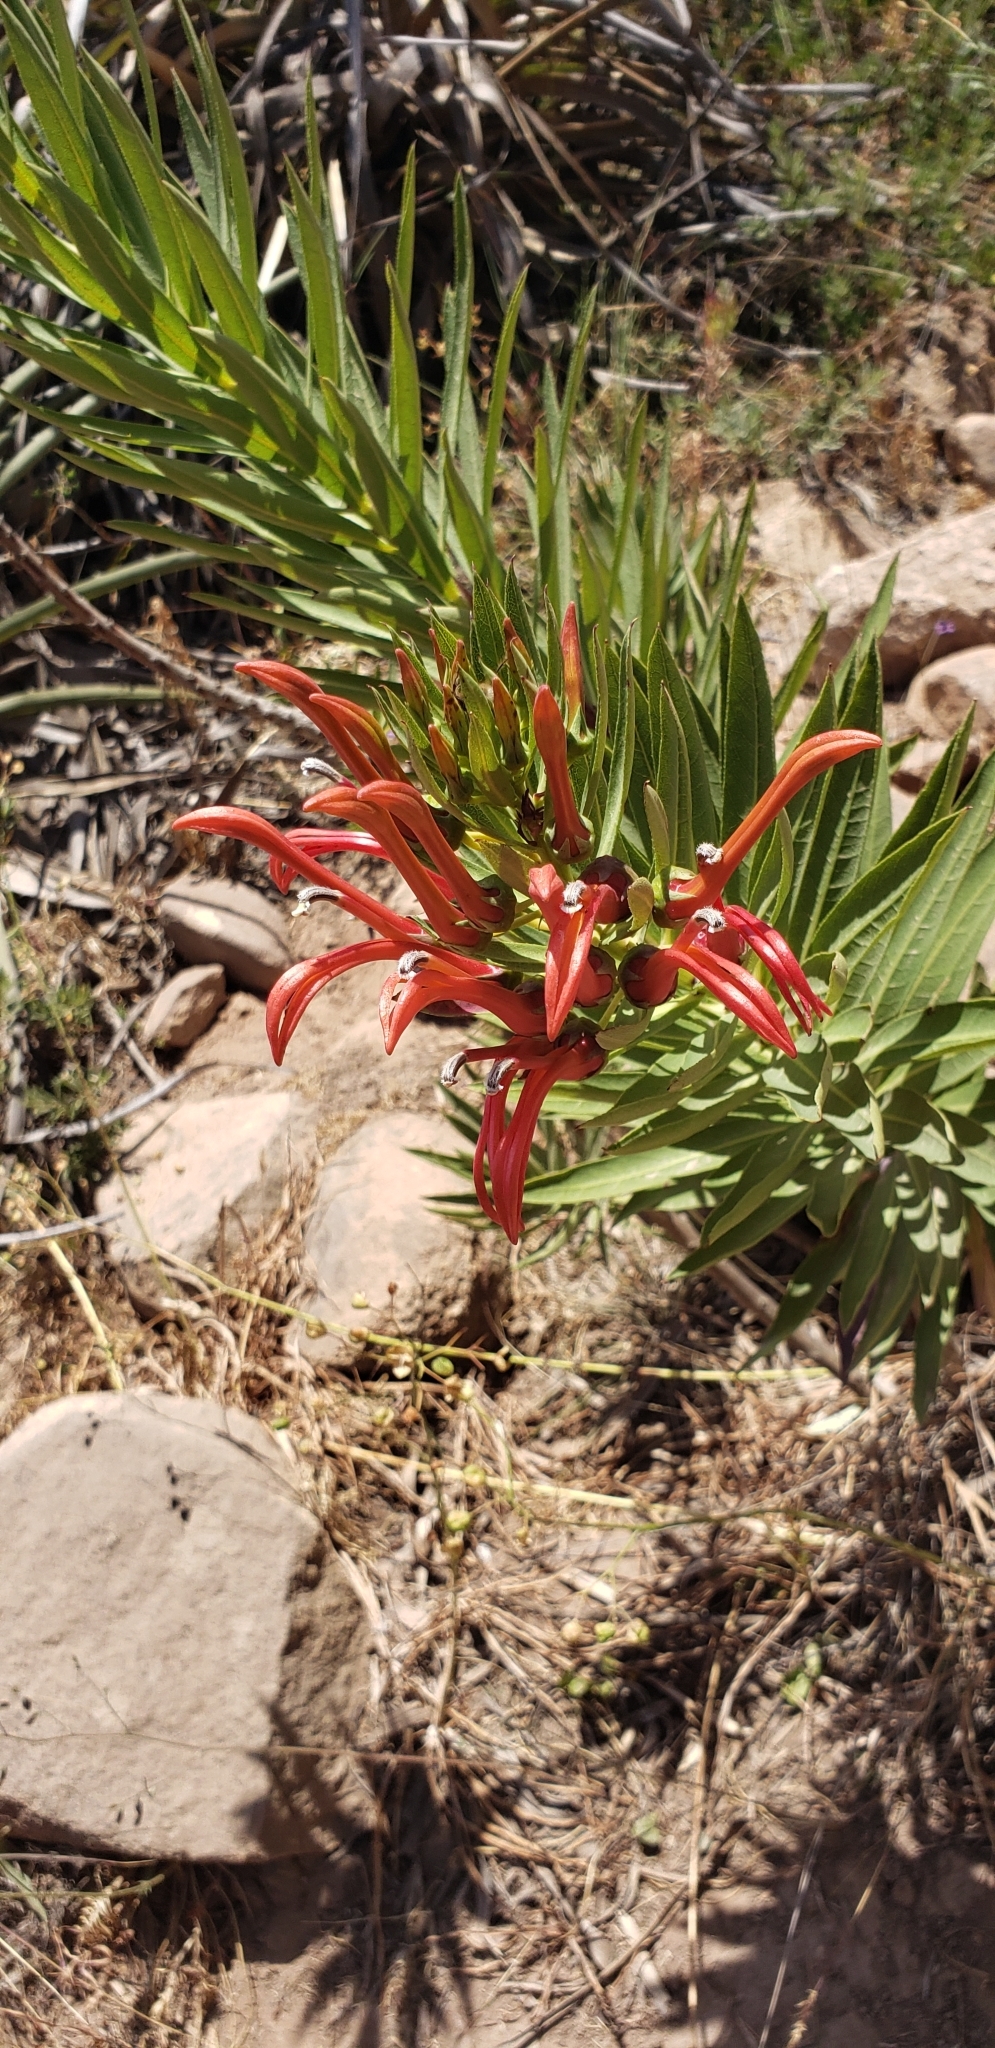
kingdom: Plantae
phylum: Tracheophyta
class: Magnoliopsida
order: Asterales
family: Campanulaceae
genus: Lobelia
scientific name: Lobelia excelsa
